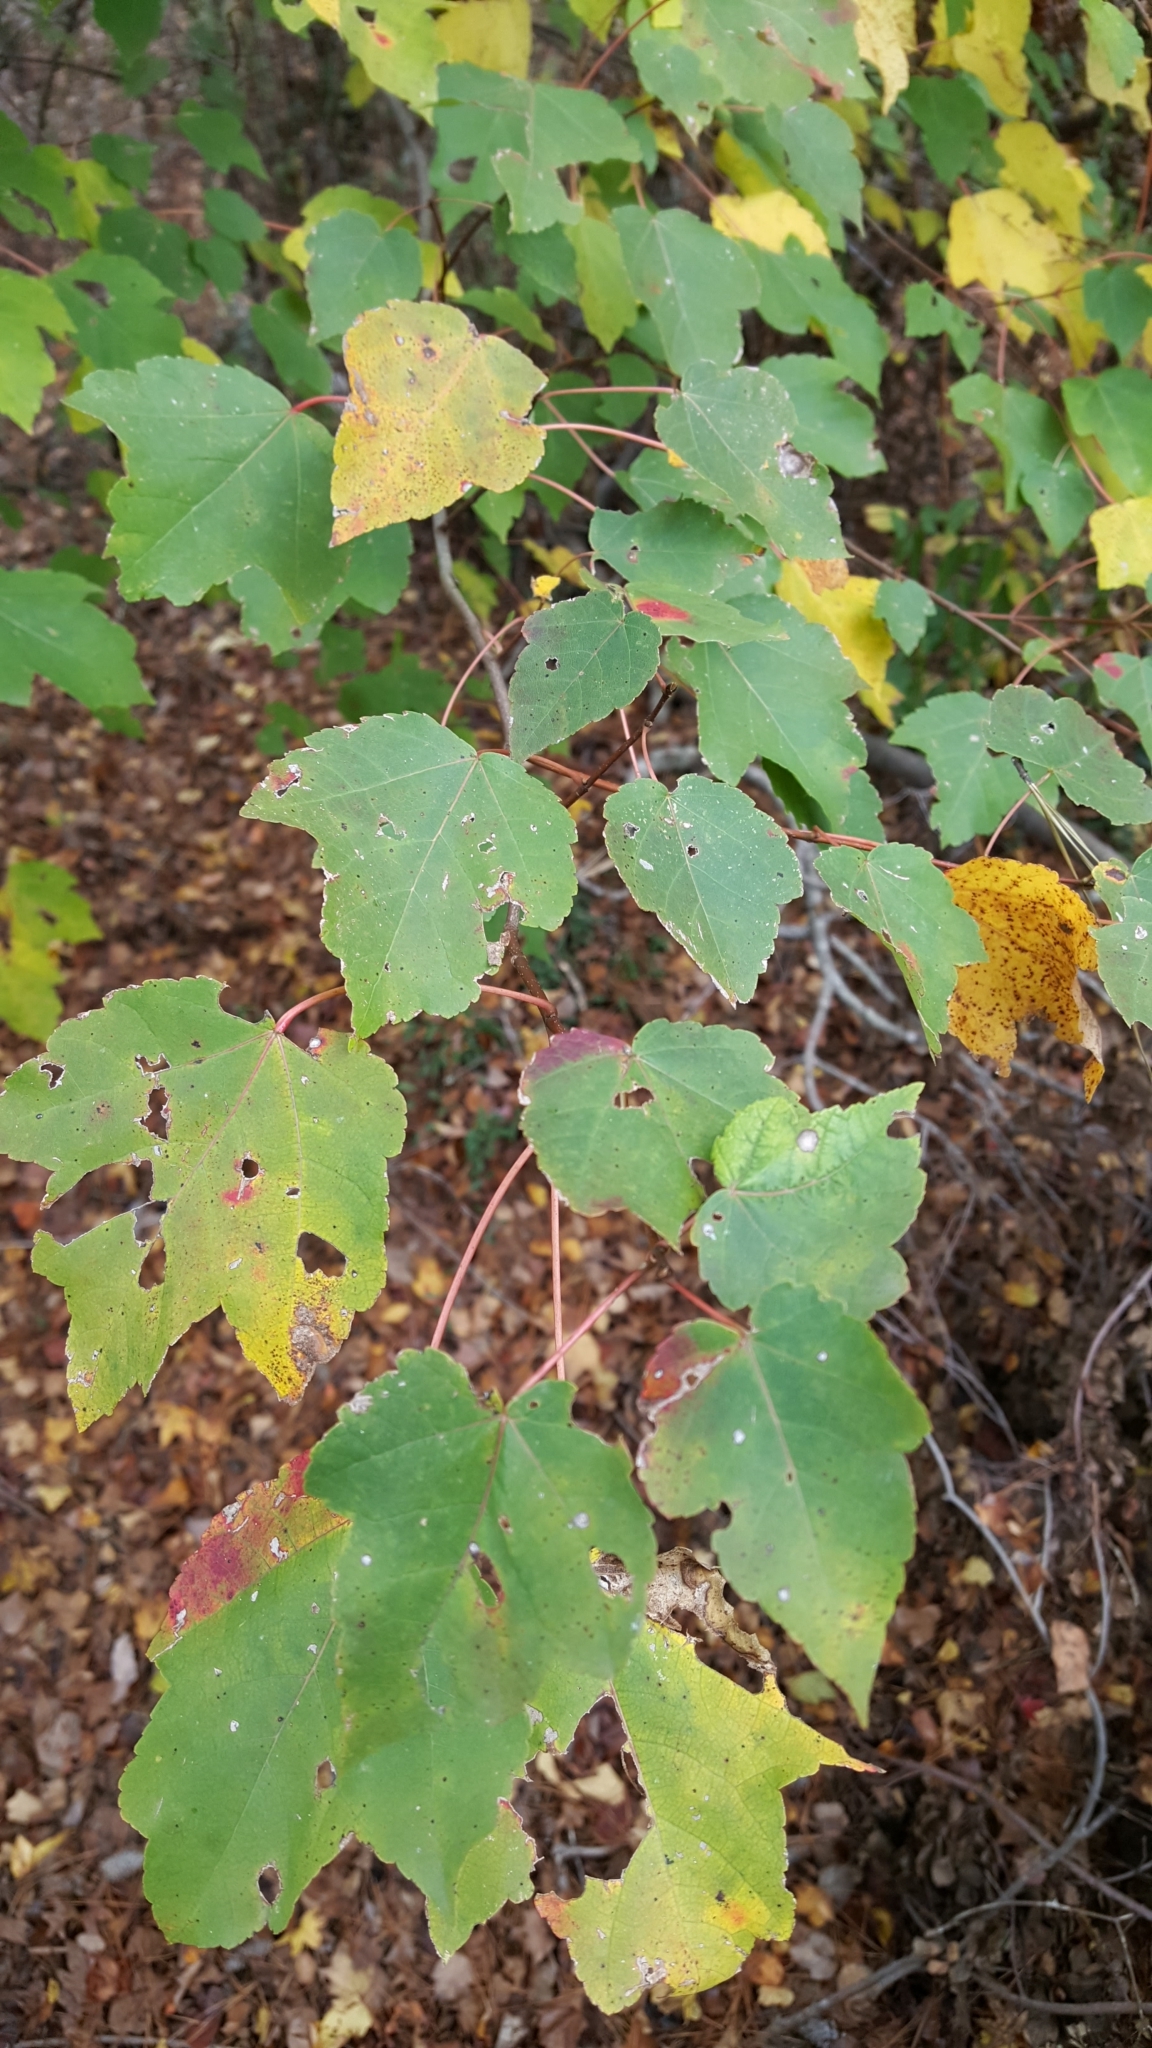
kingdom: Plantae
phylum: Tracheophyta
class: Magnoliopsida
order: Sapindales
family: Sapindaceae
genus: Acer
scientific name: Acer rubrum
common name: Red maple
